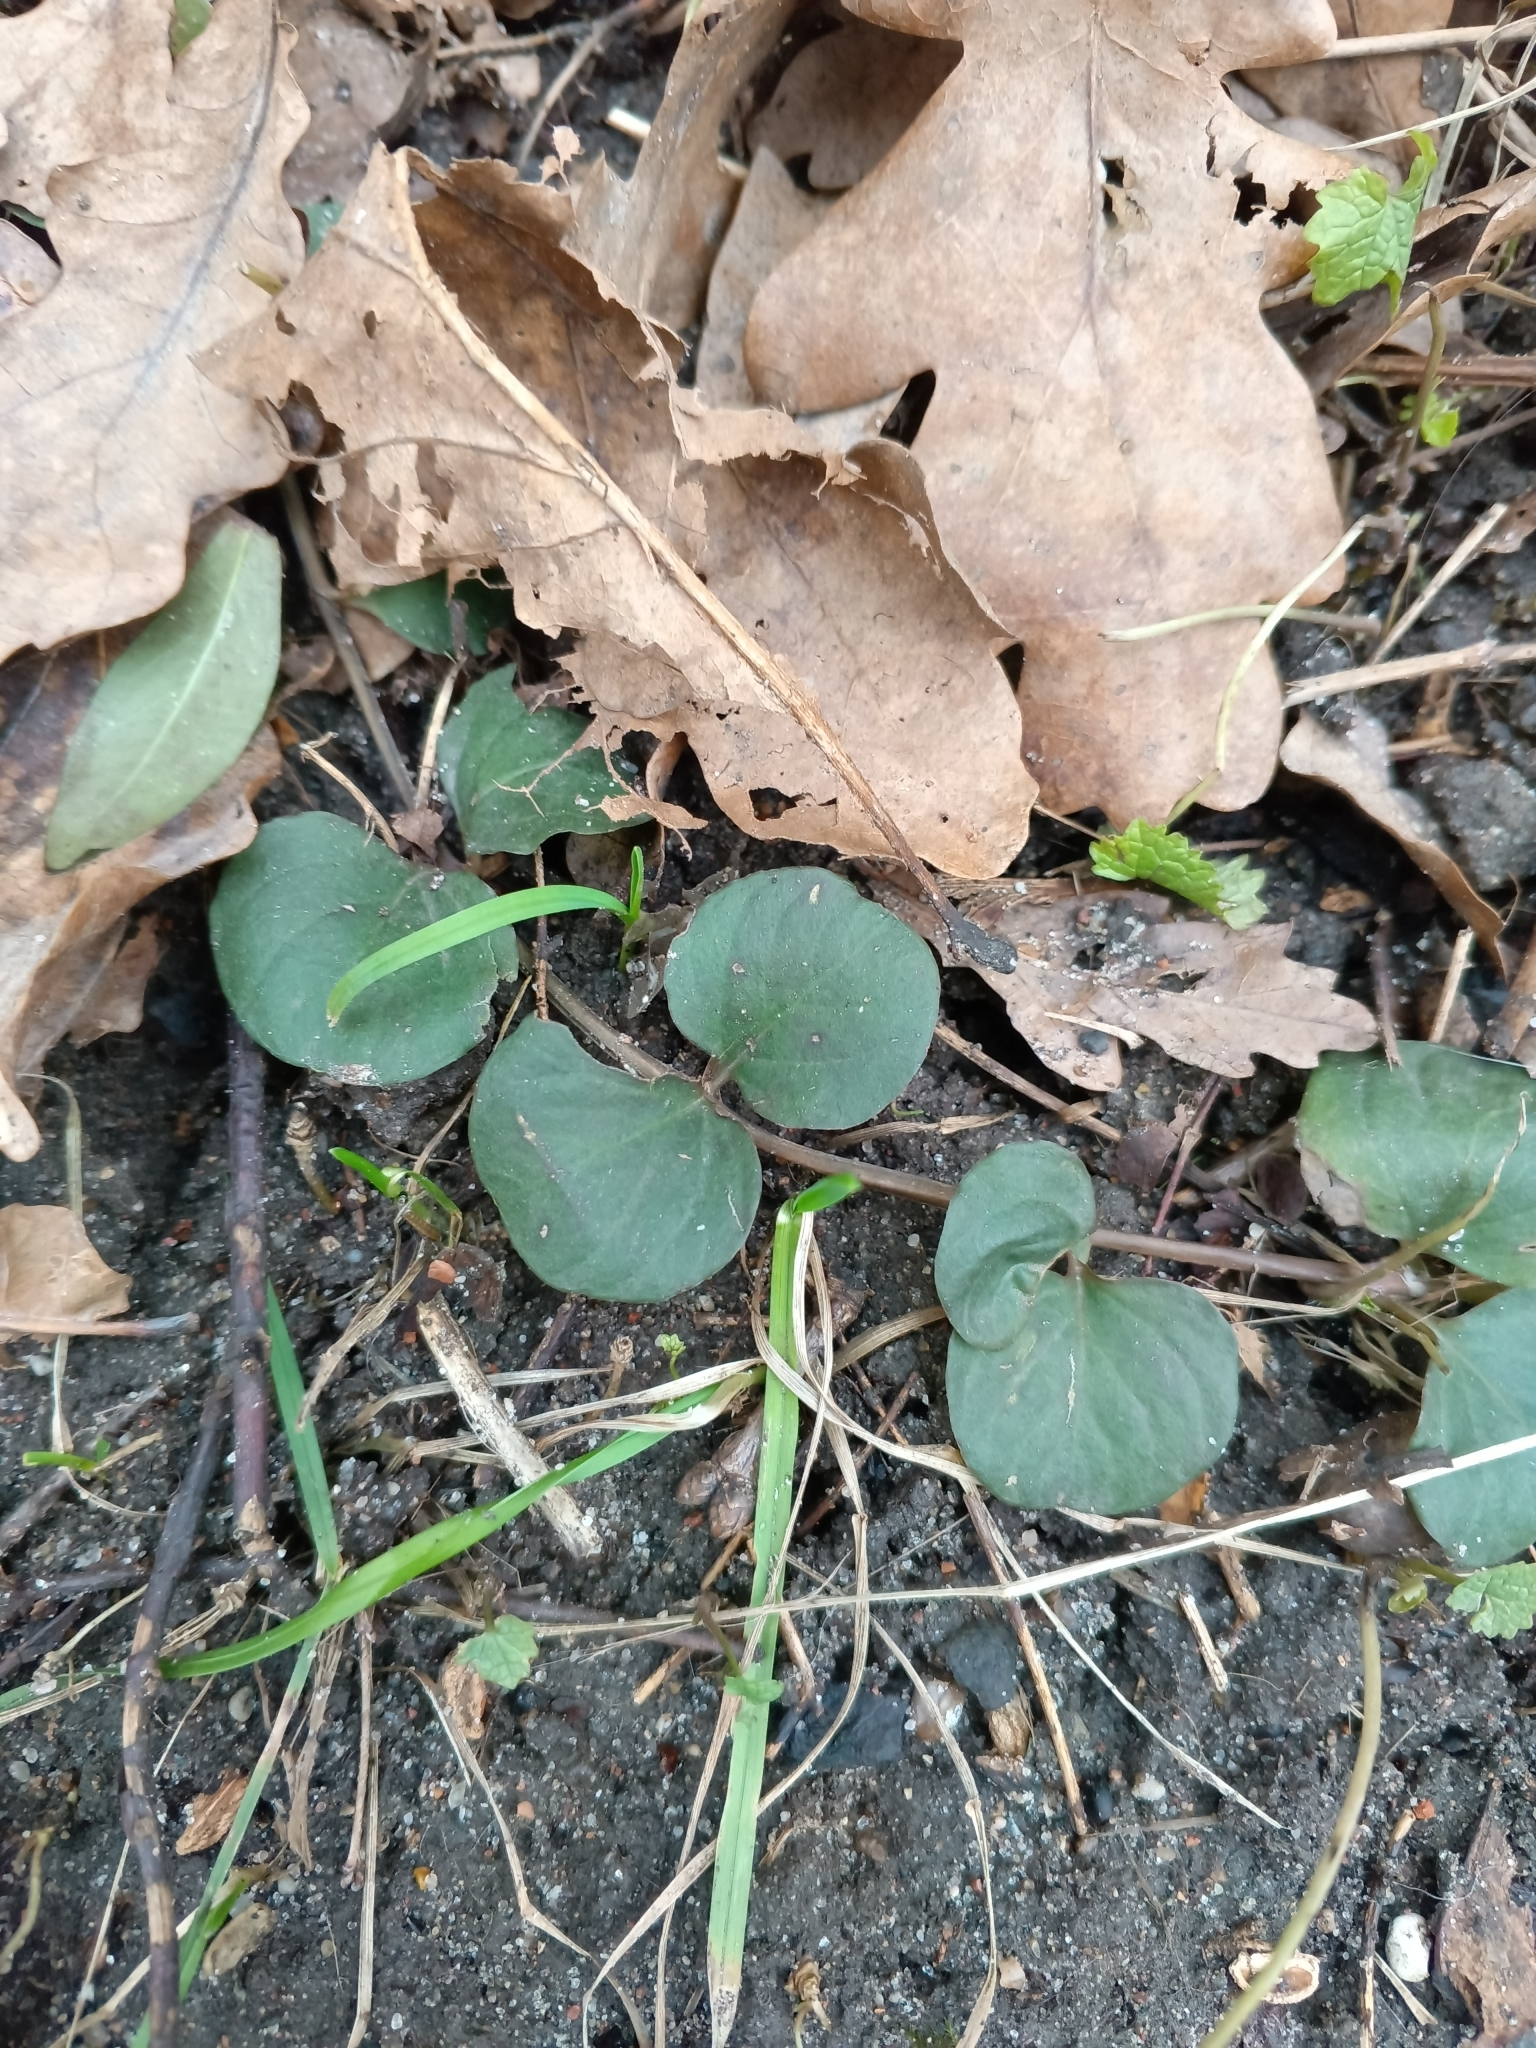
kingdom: Plantae
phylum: Tracheophyta
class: Magnoliopsida
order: Ericales
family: Primulaceae
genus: Lysimachia
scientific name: Lysimachia nummularia
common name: Moneywort
